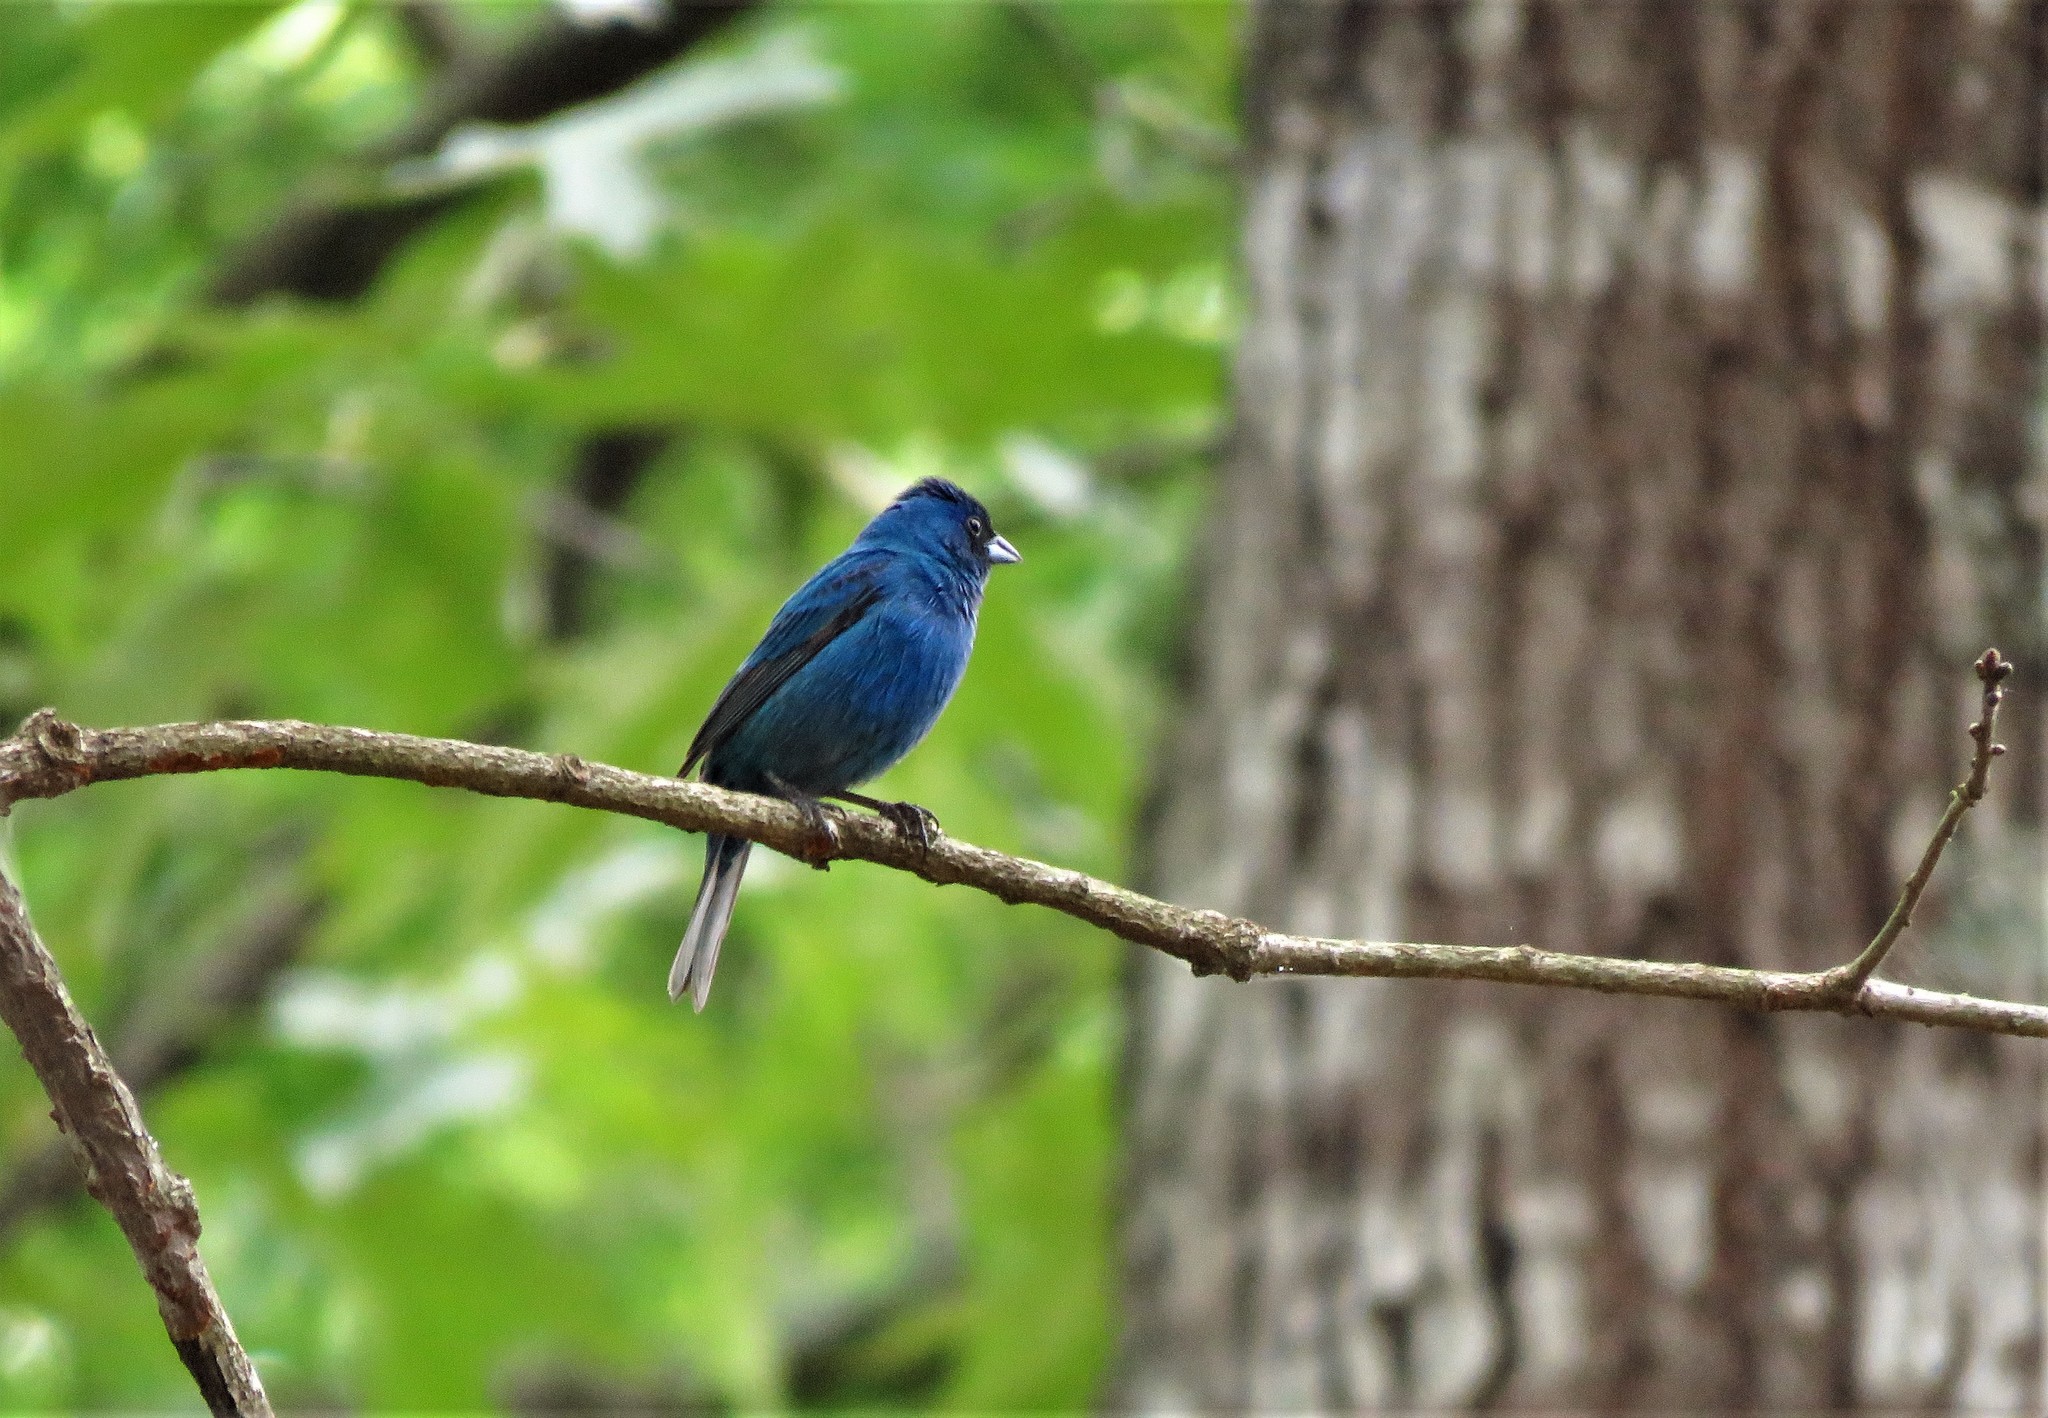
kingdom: Animalia
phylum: Chordata
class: Aves
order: Passeriformes
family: Cardinalidae
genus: Passerina
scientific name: Passerina cyanea
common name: Indigo bunting
